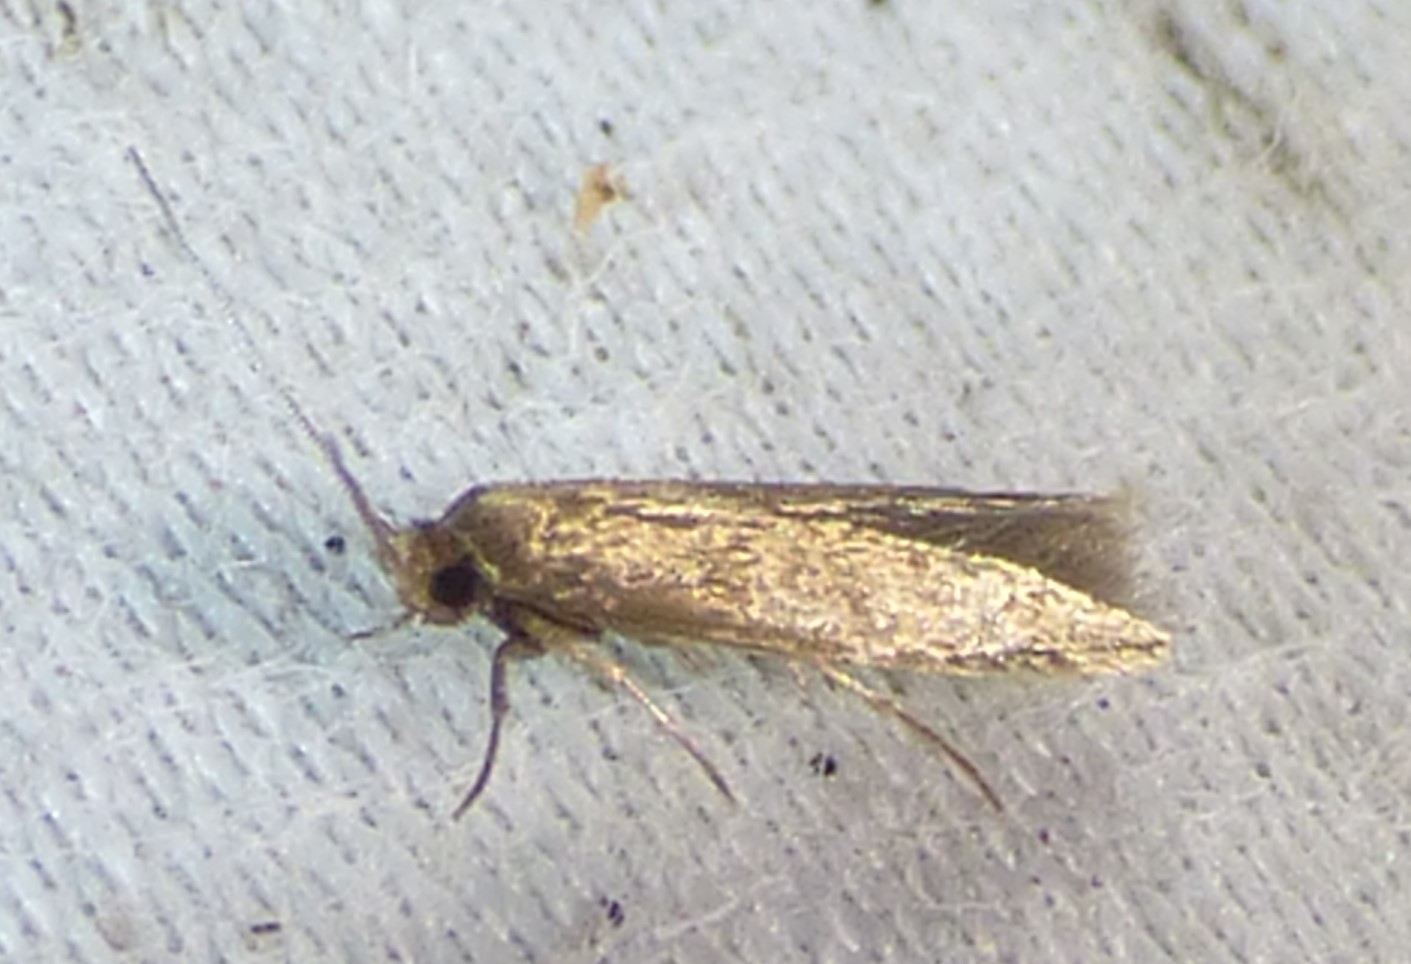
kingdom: Animalia
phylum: Arthropoda
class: Insecta
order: Lepidoptera
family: Tineidae
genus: Tinea
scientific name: Tinea apicimaculella
